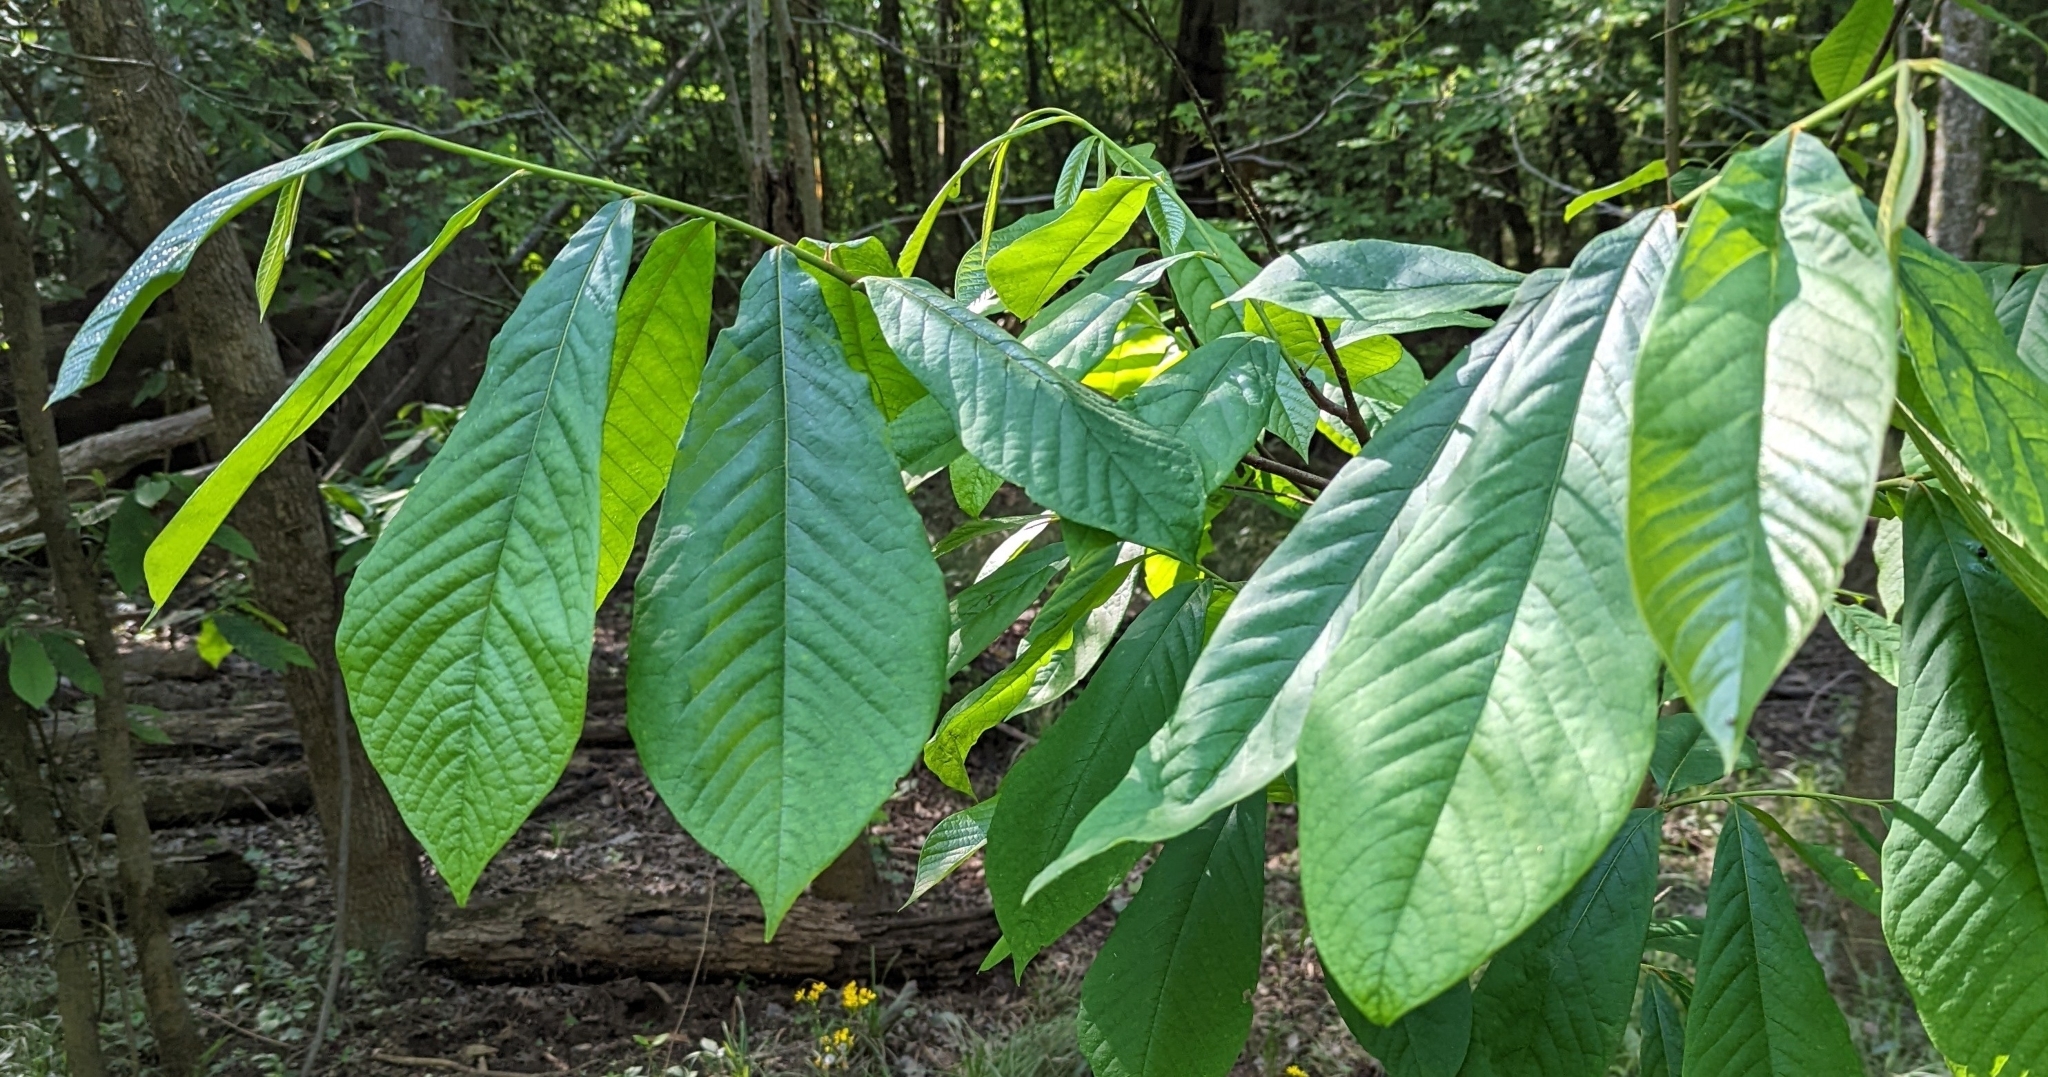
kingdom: Plantae
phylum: Tracheophyta
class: Magnoliopsida
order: Magnoliales
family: Annonaceae
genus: Asimina
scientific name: Asimina triloba
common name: Dog-banana
